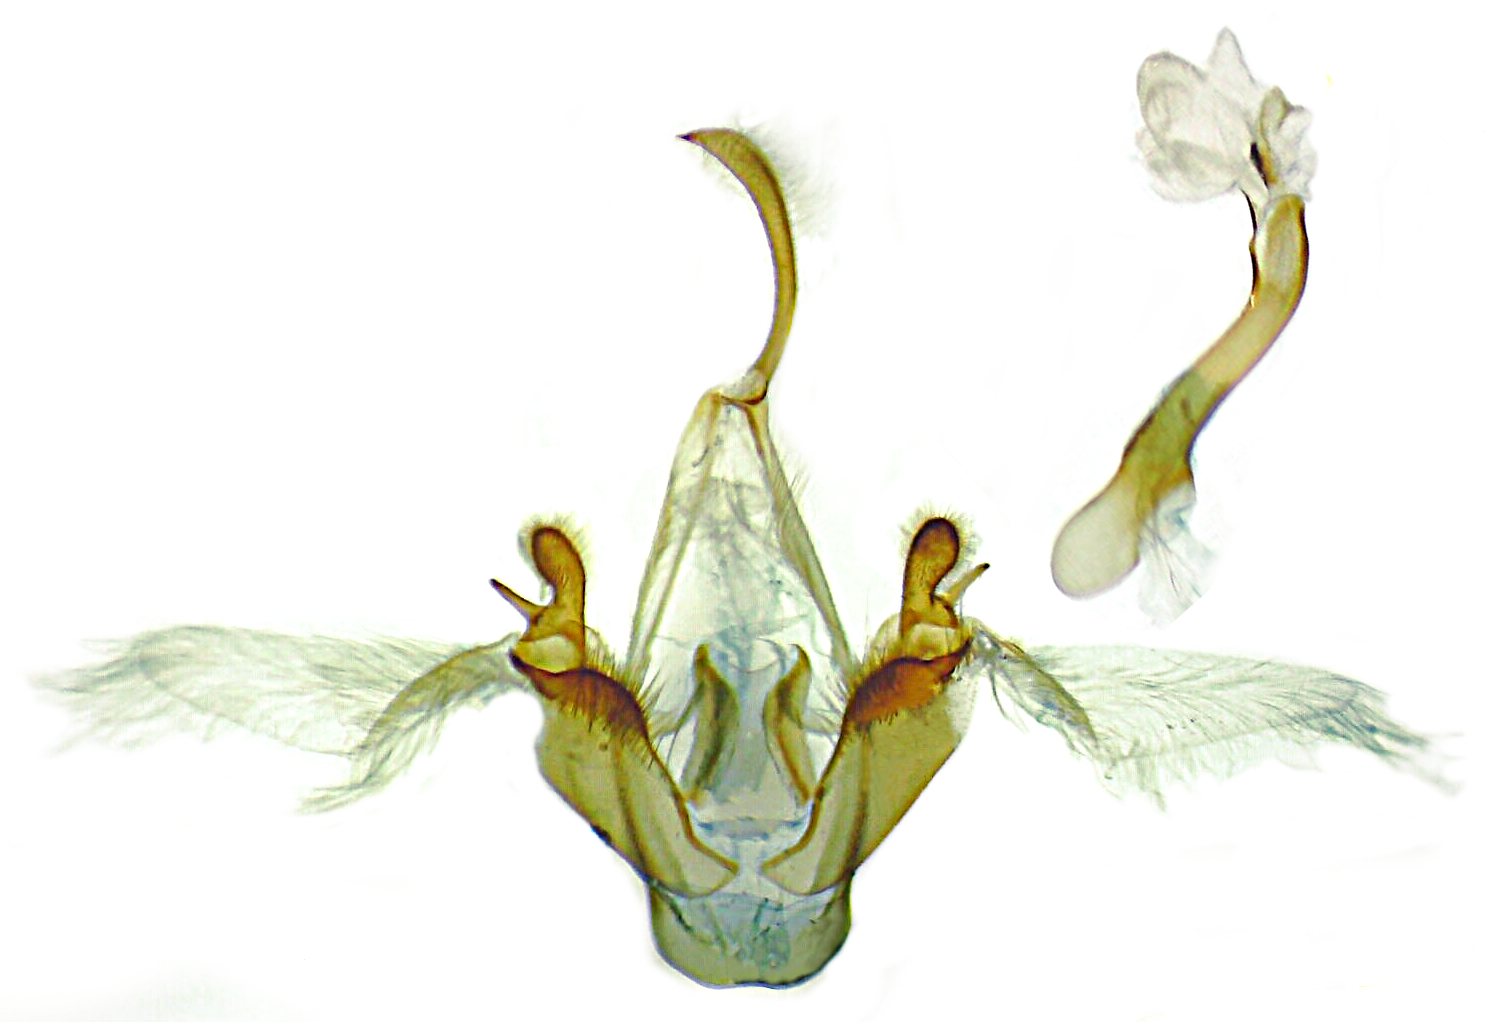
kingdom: Animalia
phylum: Arthropoda
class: Insecta
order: Lepidoptera
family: Erebidae
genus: Metalectra
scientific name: Metalectra discalis
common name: Common fungus moth
